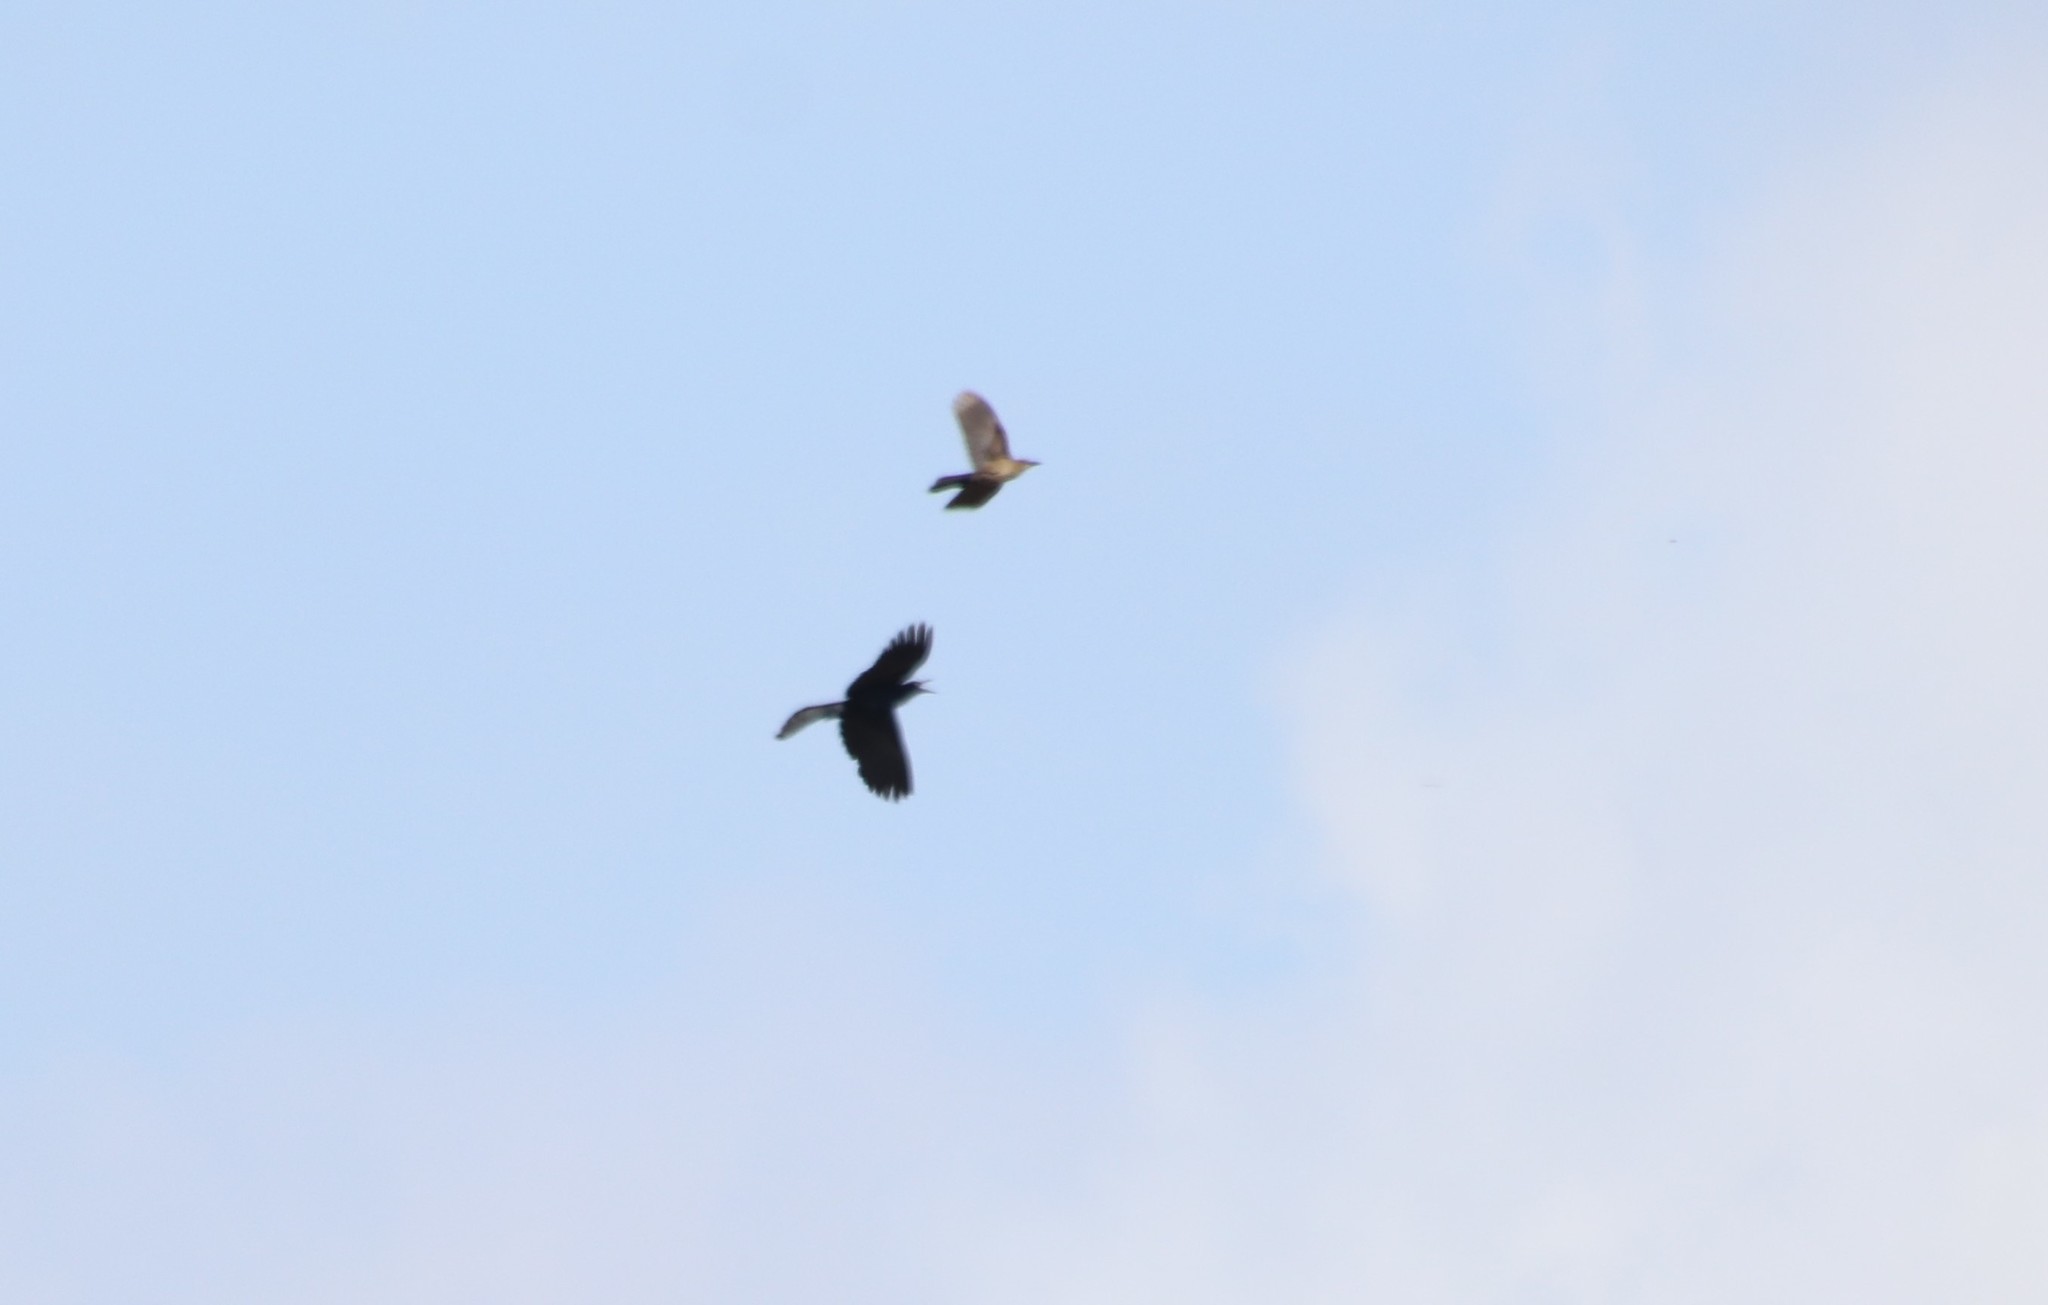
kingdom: Animalia
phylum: Chordata
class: Aves
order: Passeriformes
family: Icteridae
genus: Quiscalus
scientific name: Quiscalus mexicanus
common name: Great-tailed grackle
